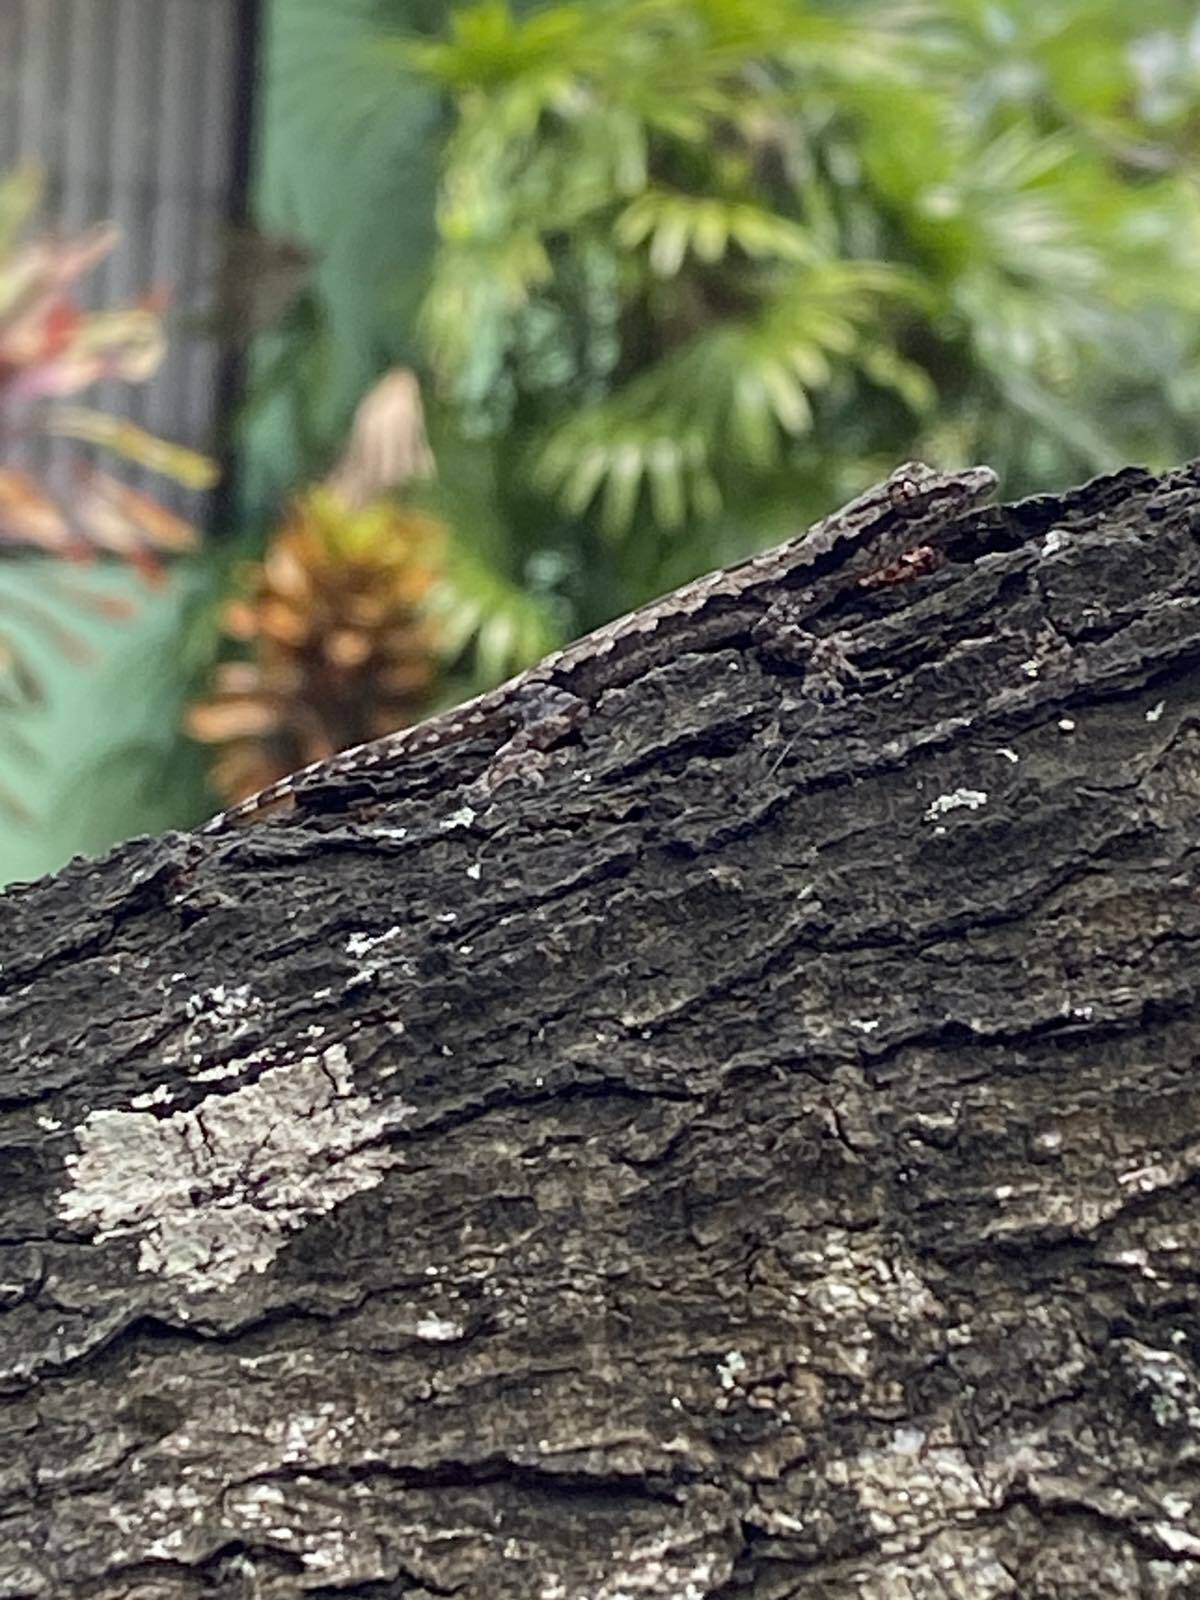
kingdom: Animalia
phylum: Chordata
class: Squamata
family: Gekkonidae
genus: Hemidactylus
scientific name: Hemidactylus platyurus
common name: Flat-tailed house gecko
